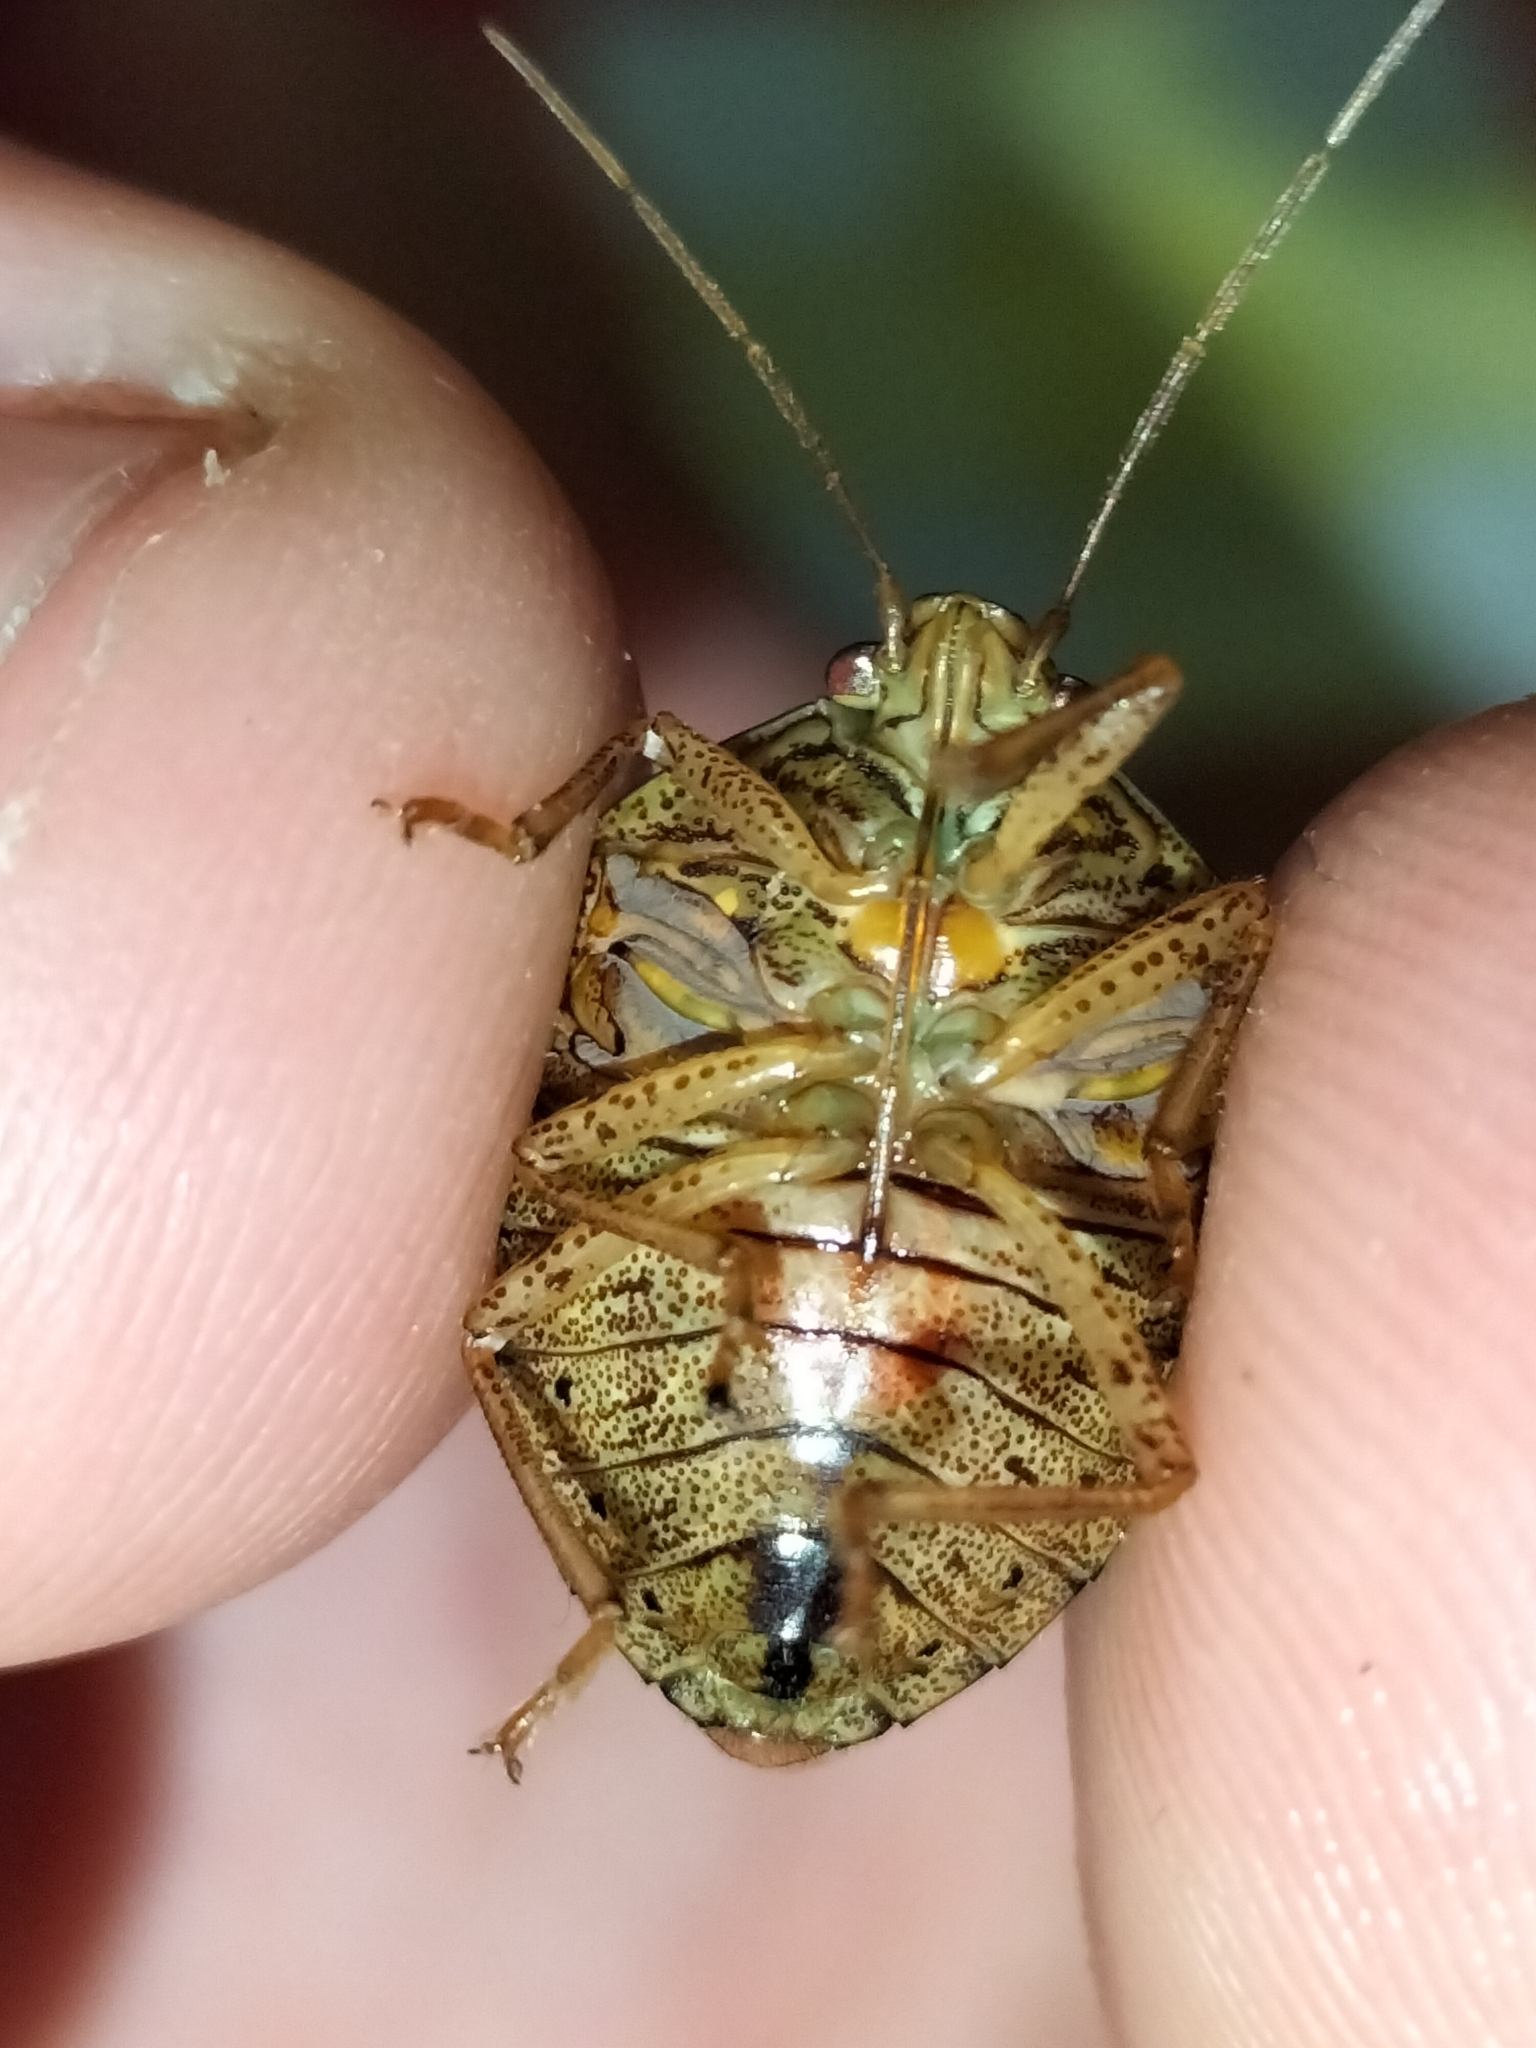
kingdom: Animalia
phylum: Arthropoda
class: Insecta
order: Hemiptera
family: Pentatomidae
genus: Axiagastus
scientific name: Axiagastus rosmarus
